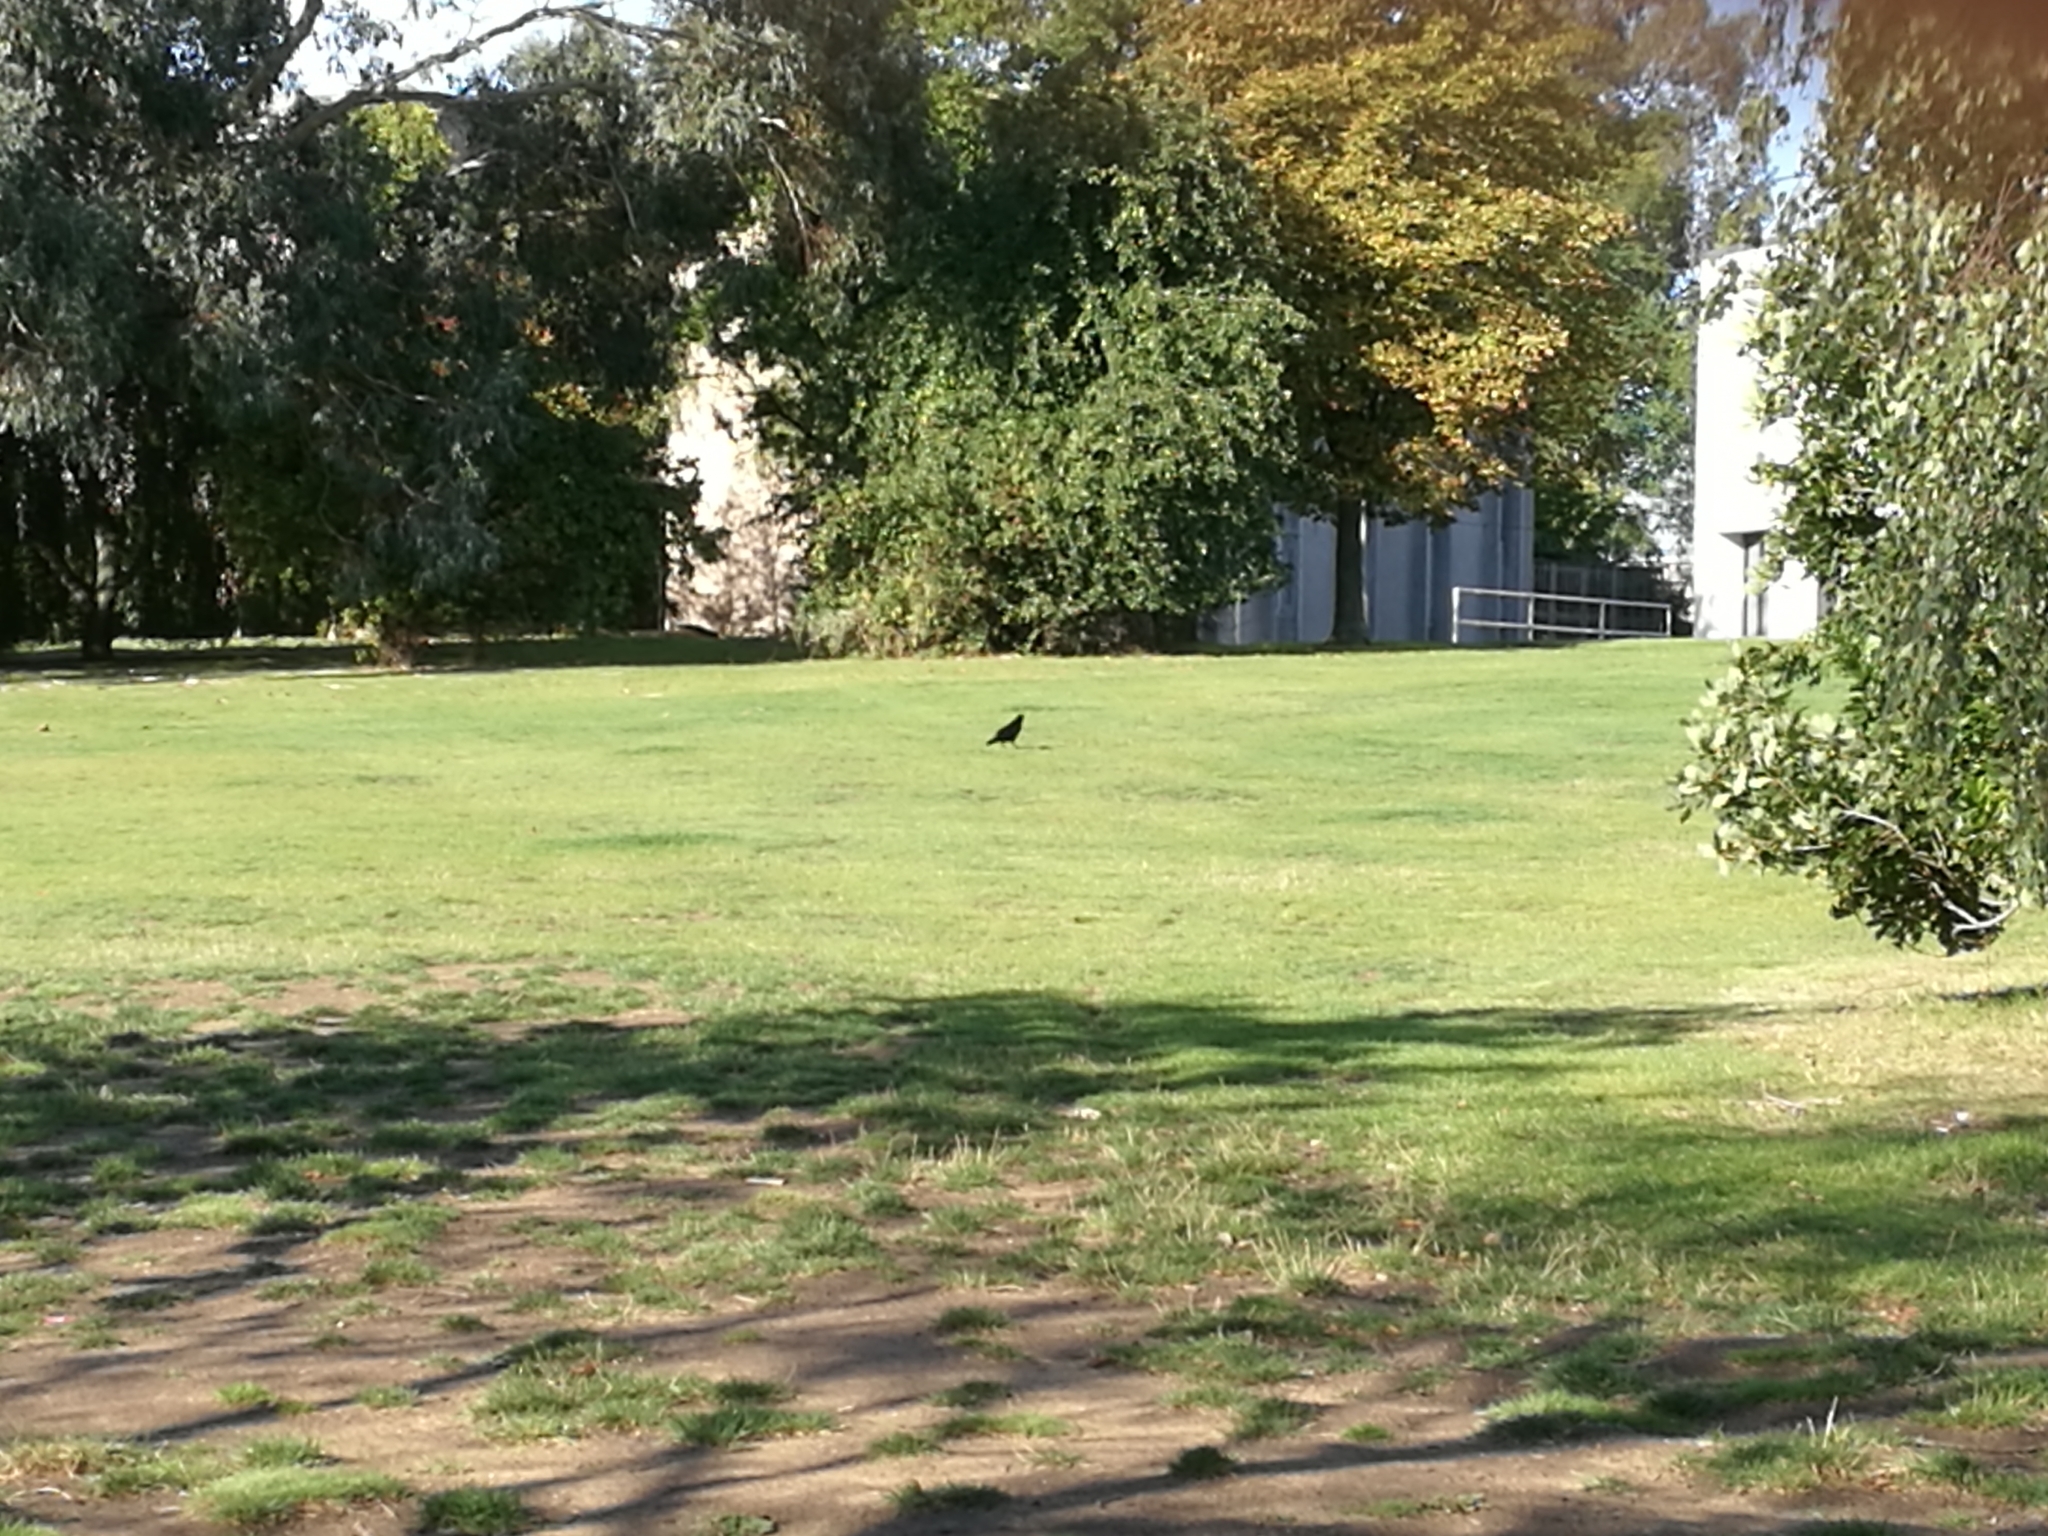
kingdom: Animalia
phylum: Chordata
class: Aves
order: Passeriformes
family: Corvidae
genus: Corvus
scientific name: Corvus frugilegus
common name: Rook
